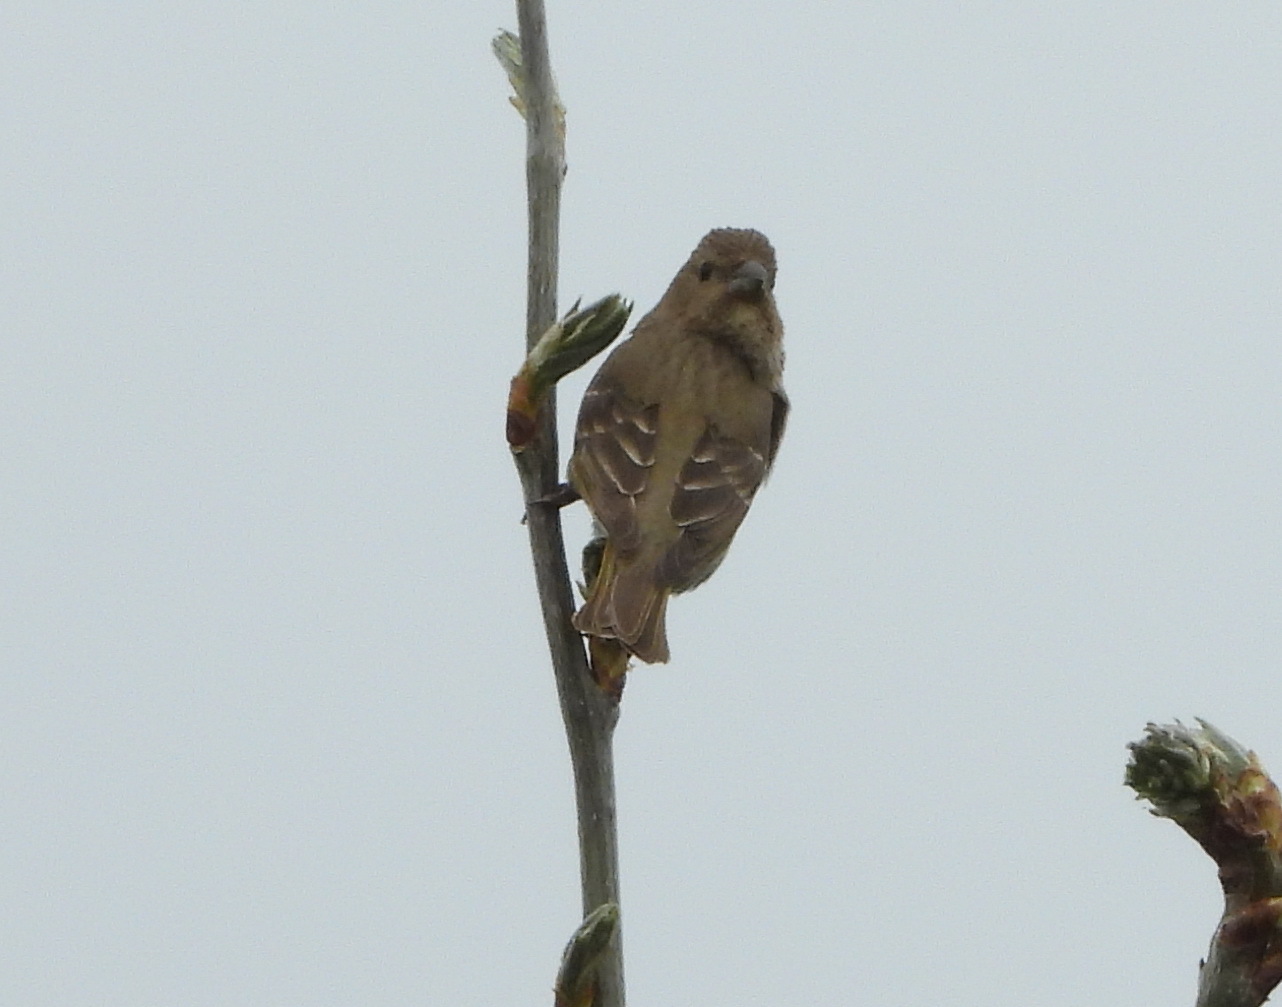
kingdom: Animalia
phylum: Chordata
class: Aves
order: Passeriformes
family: Fringillidae
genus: Carpodacus
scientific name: Carpodacus erythrinus
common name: Common rosefinch
